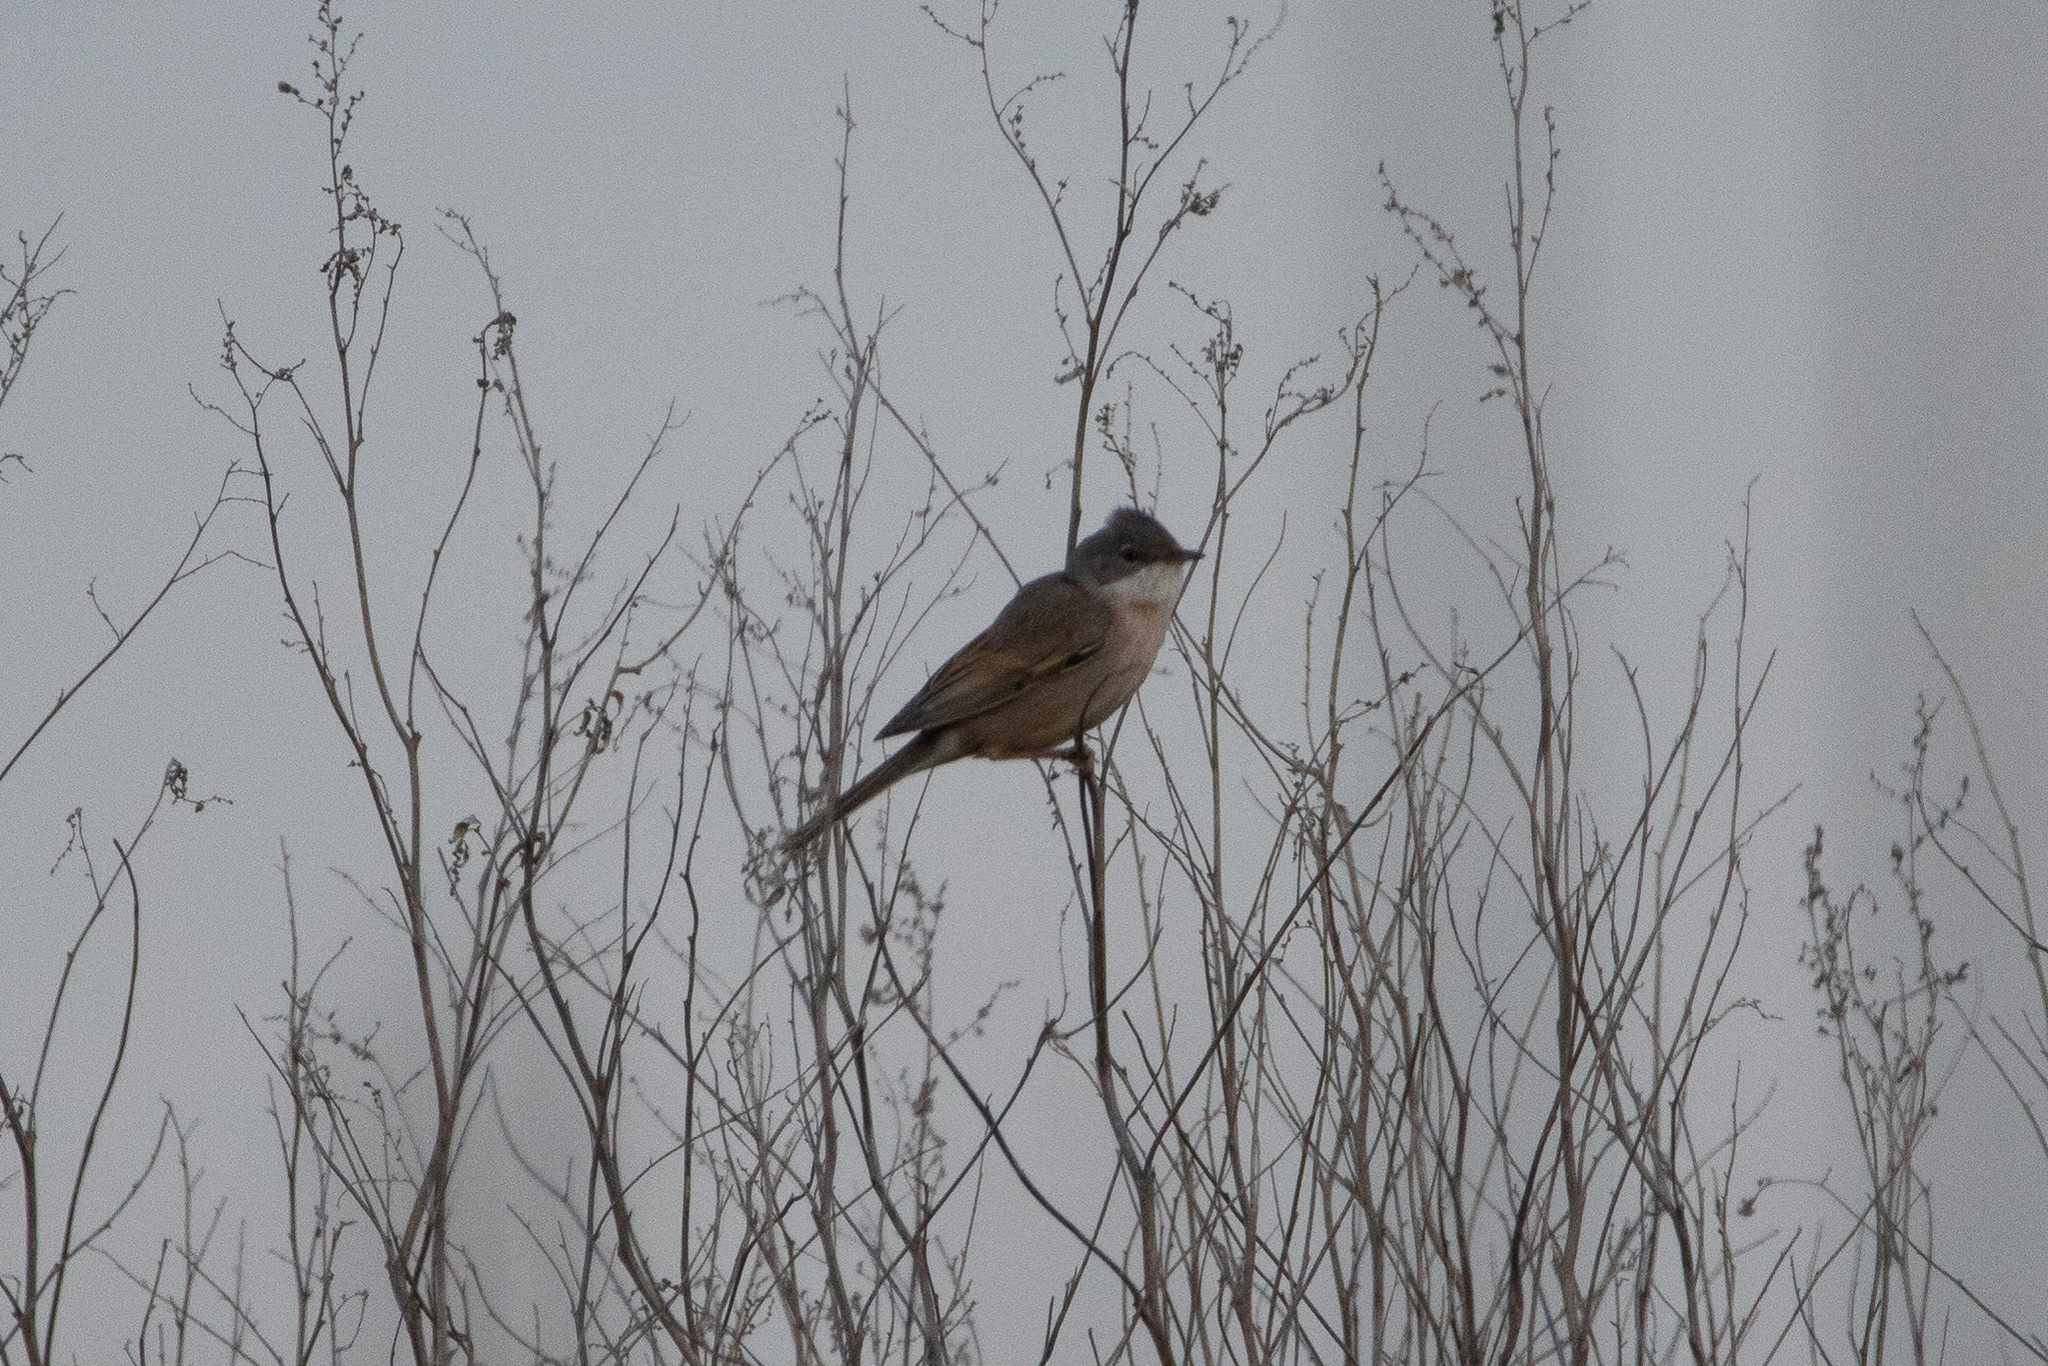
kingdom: Animalia
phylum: Chordata
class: Aves
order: Passeriformes
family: Sylviidae
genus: Sylvia
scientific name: Sylvia communis
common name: Common whitethroat
